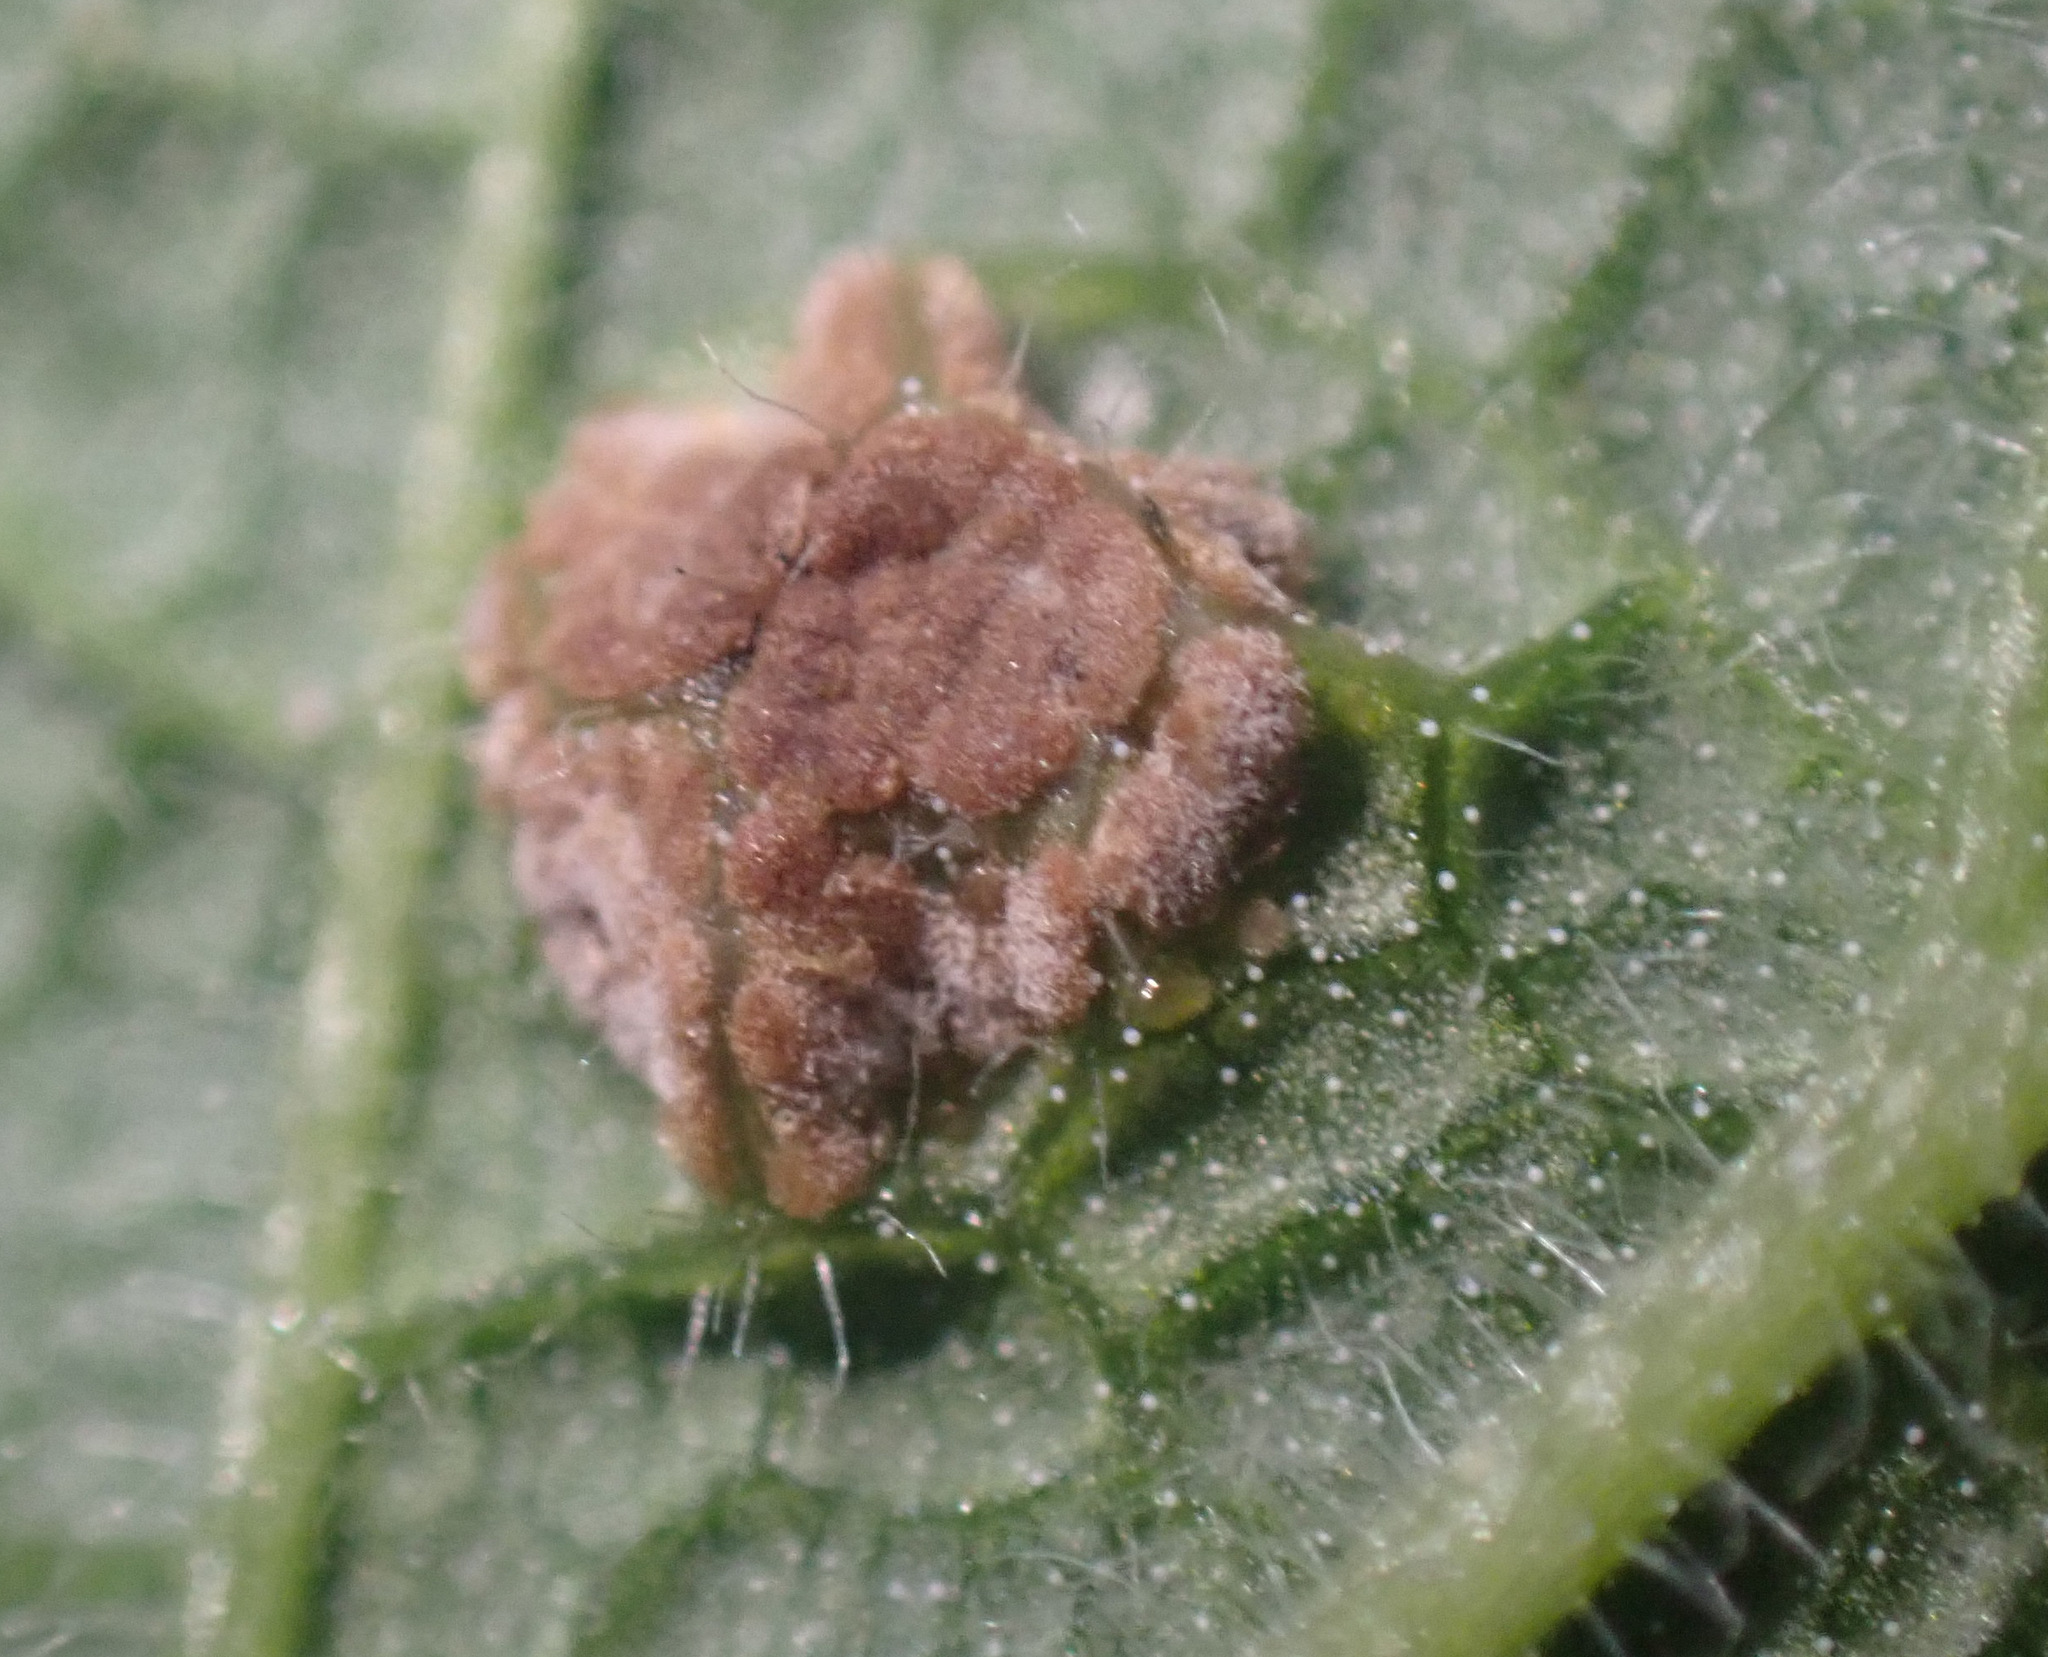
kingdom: Fungi
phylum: Basidiomycota
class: Pucciniomycetes
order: Pucciniales
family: Pucciniaceae
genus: Puccinia
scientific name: Puccinia annularis
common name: Wood sage rust
